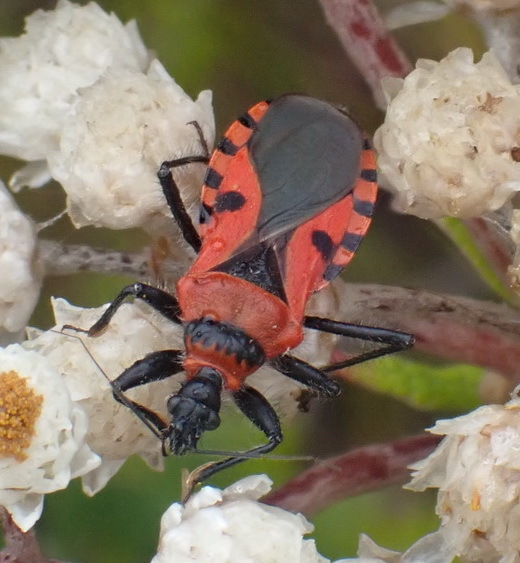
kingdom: Animalia
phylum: Arthropoda
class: Insecta
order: Hemiptera
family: Reduviidae
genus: Mardania
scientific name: Mardania sellata
